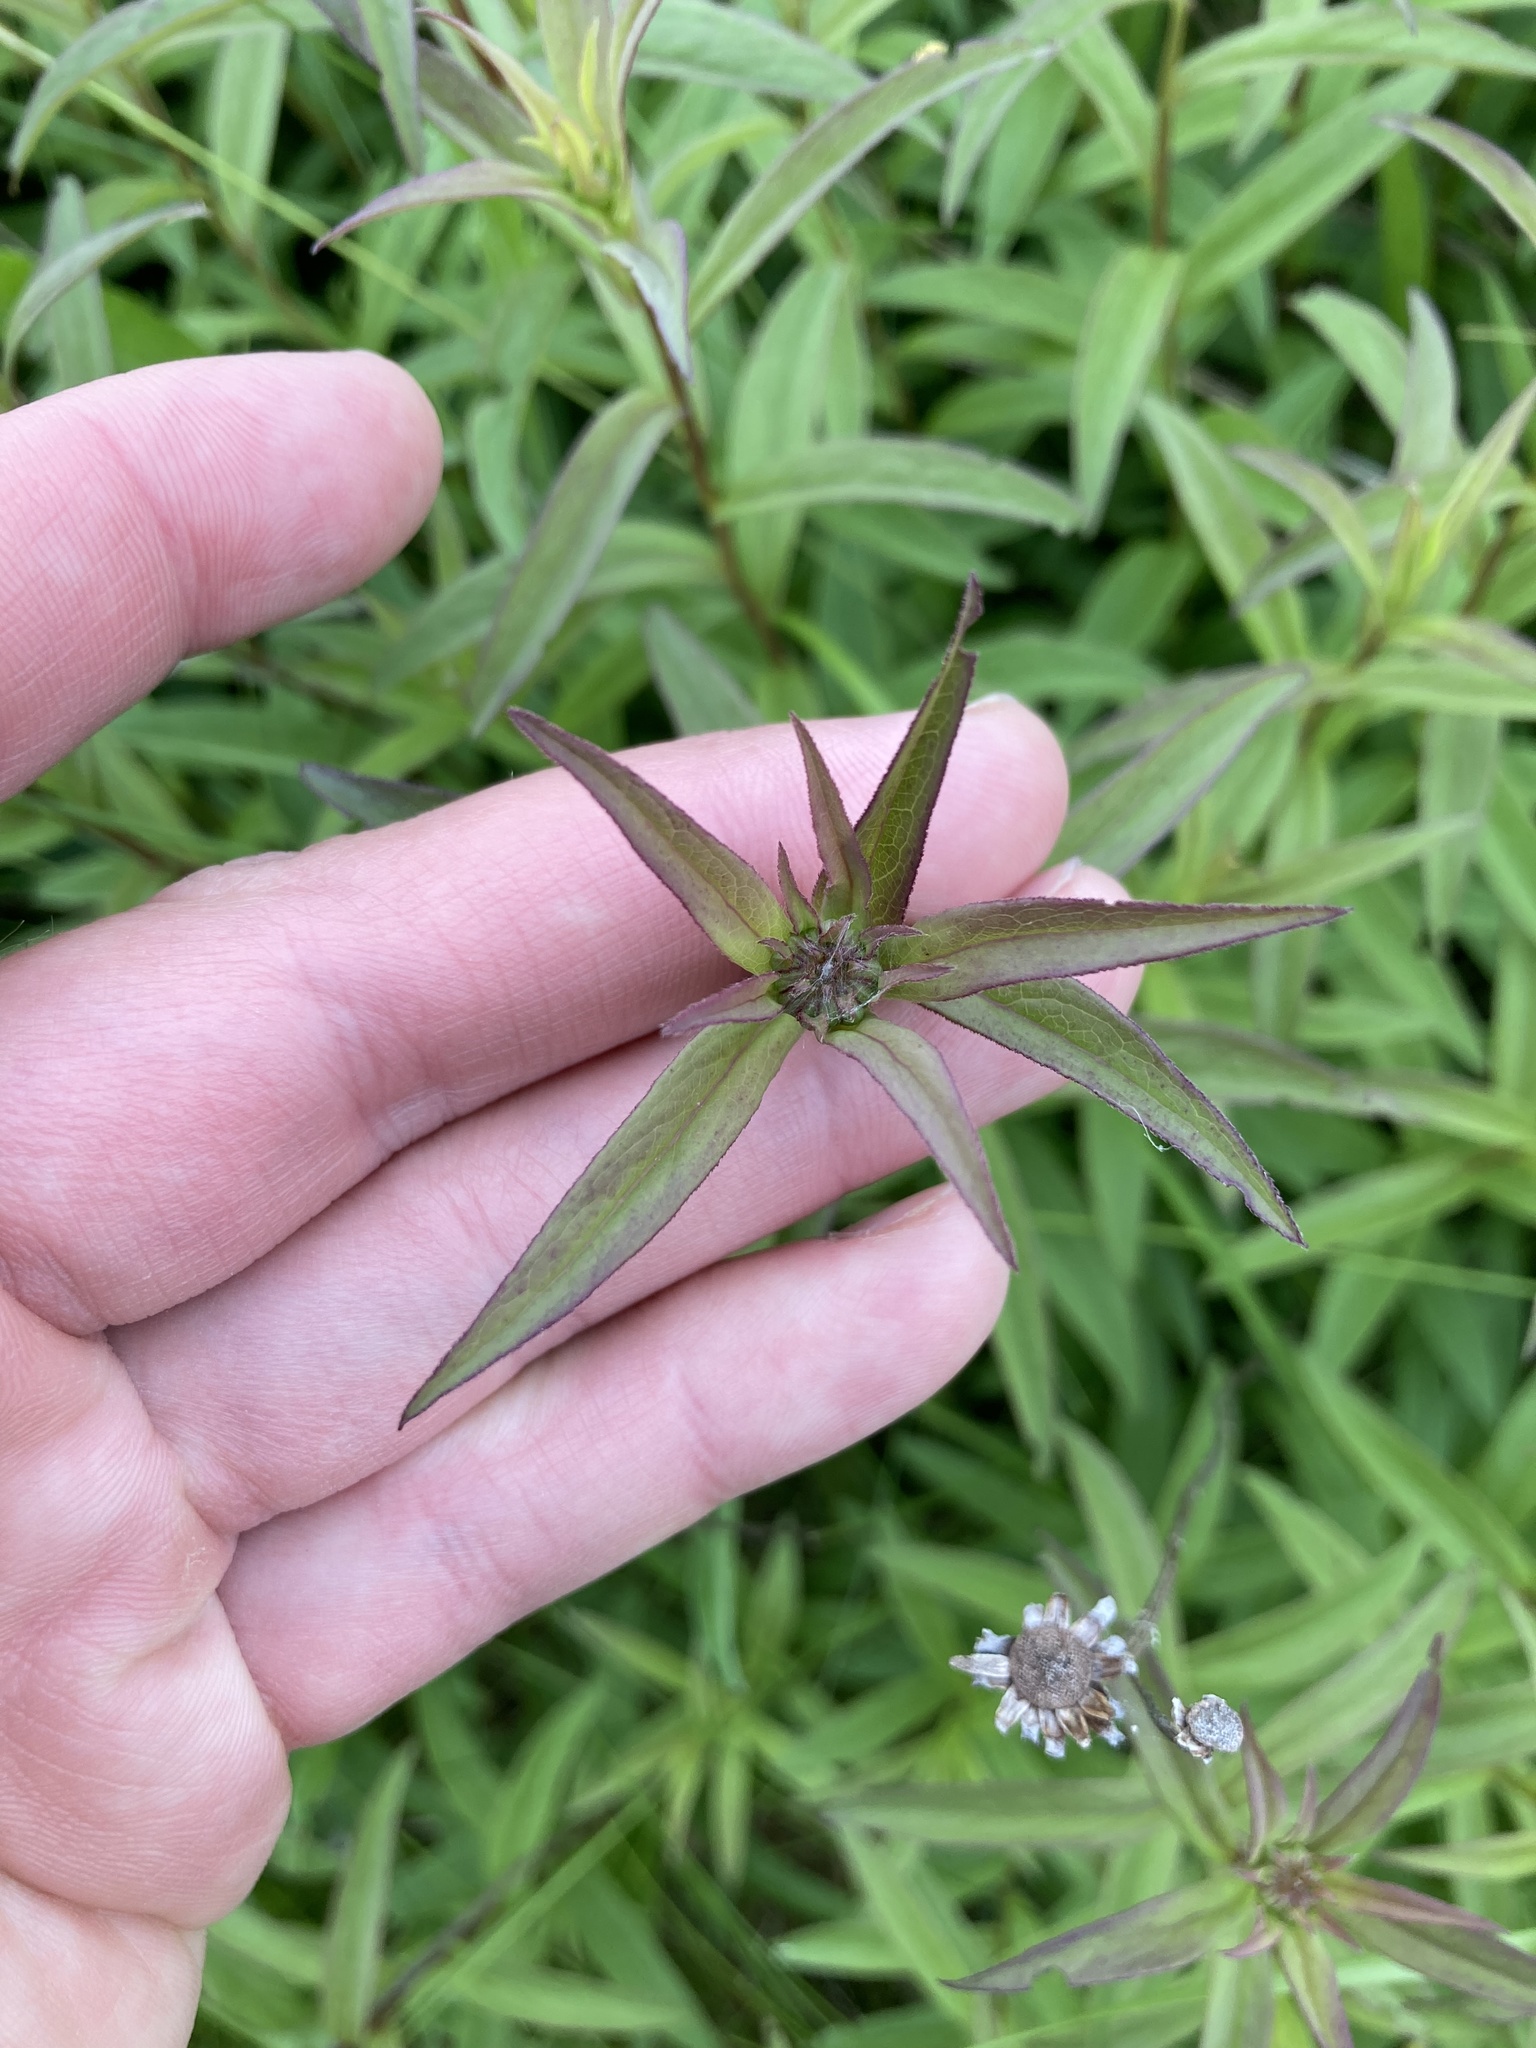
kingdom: Plantae
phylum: Tracheophyta
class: Magnoliopsida
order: Asterales
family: Asteraceae
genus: Pentanema
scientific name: Pentanema salicinum
